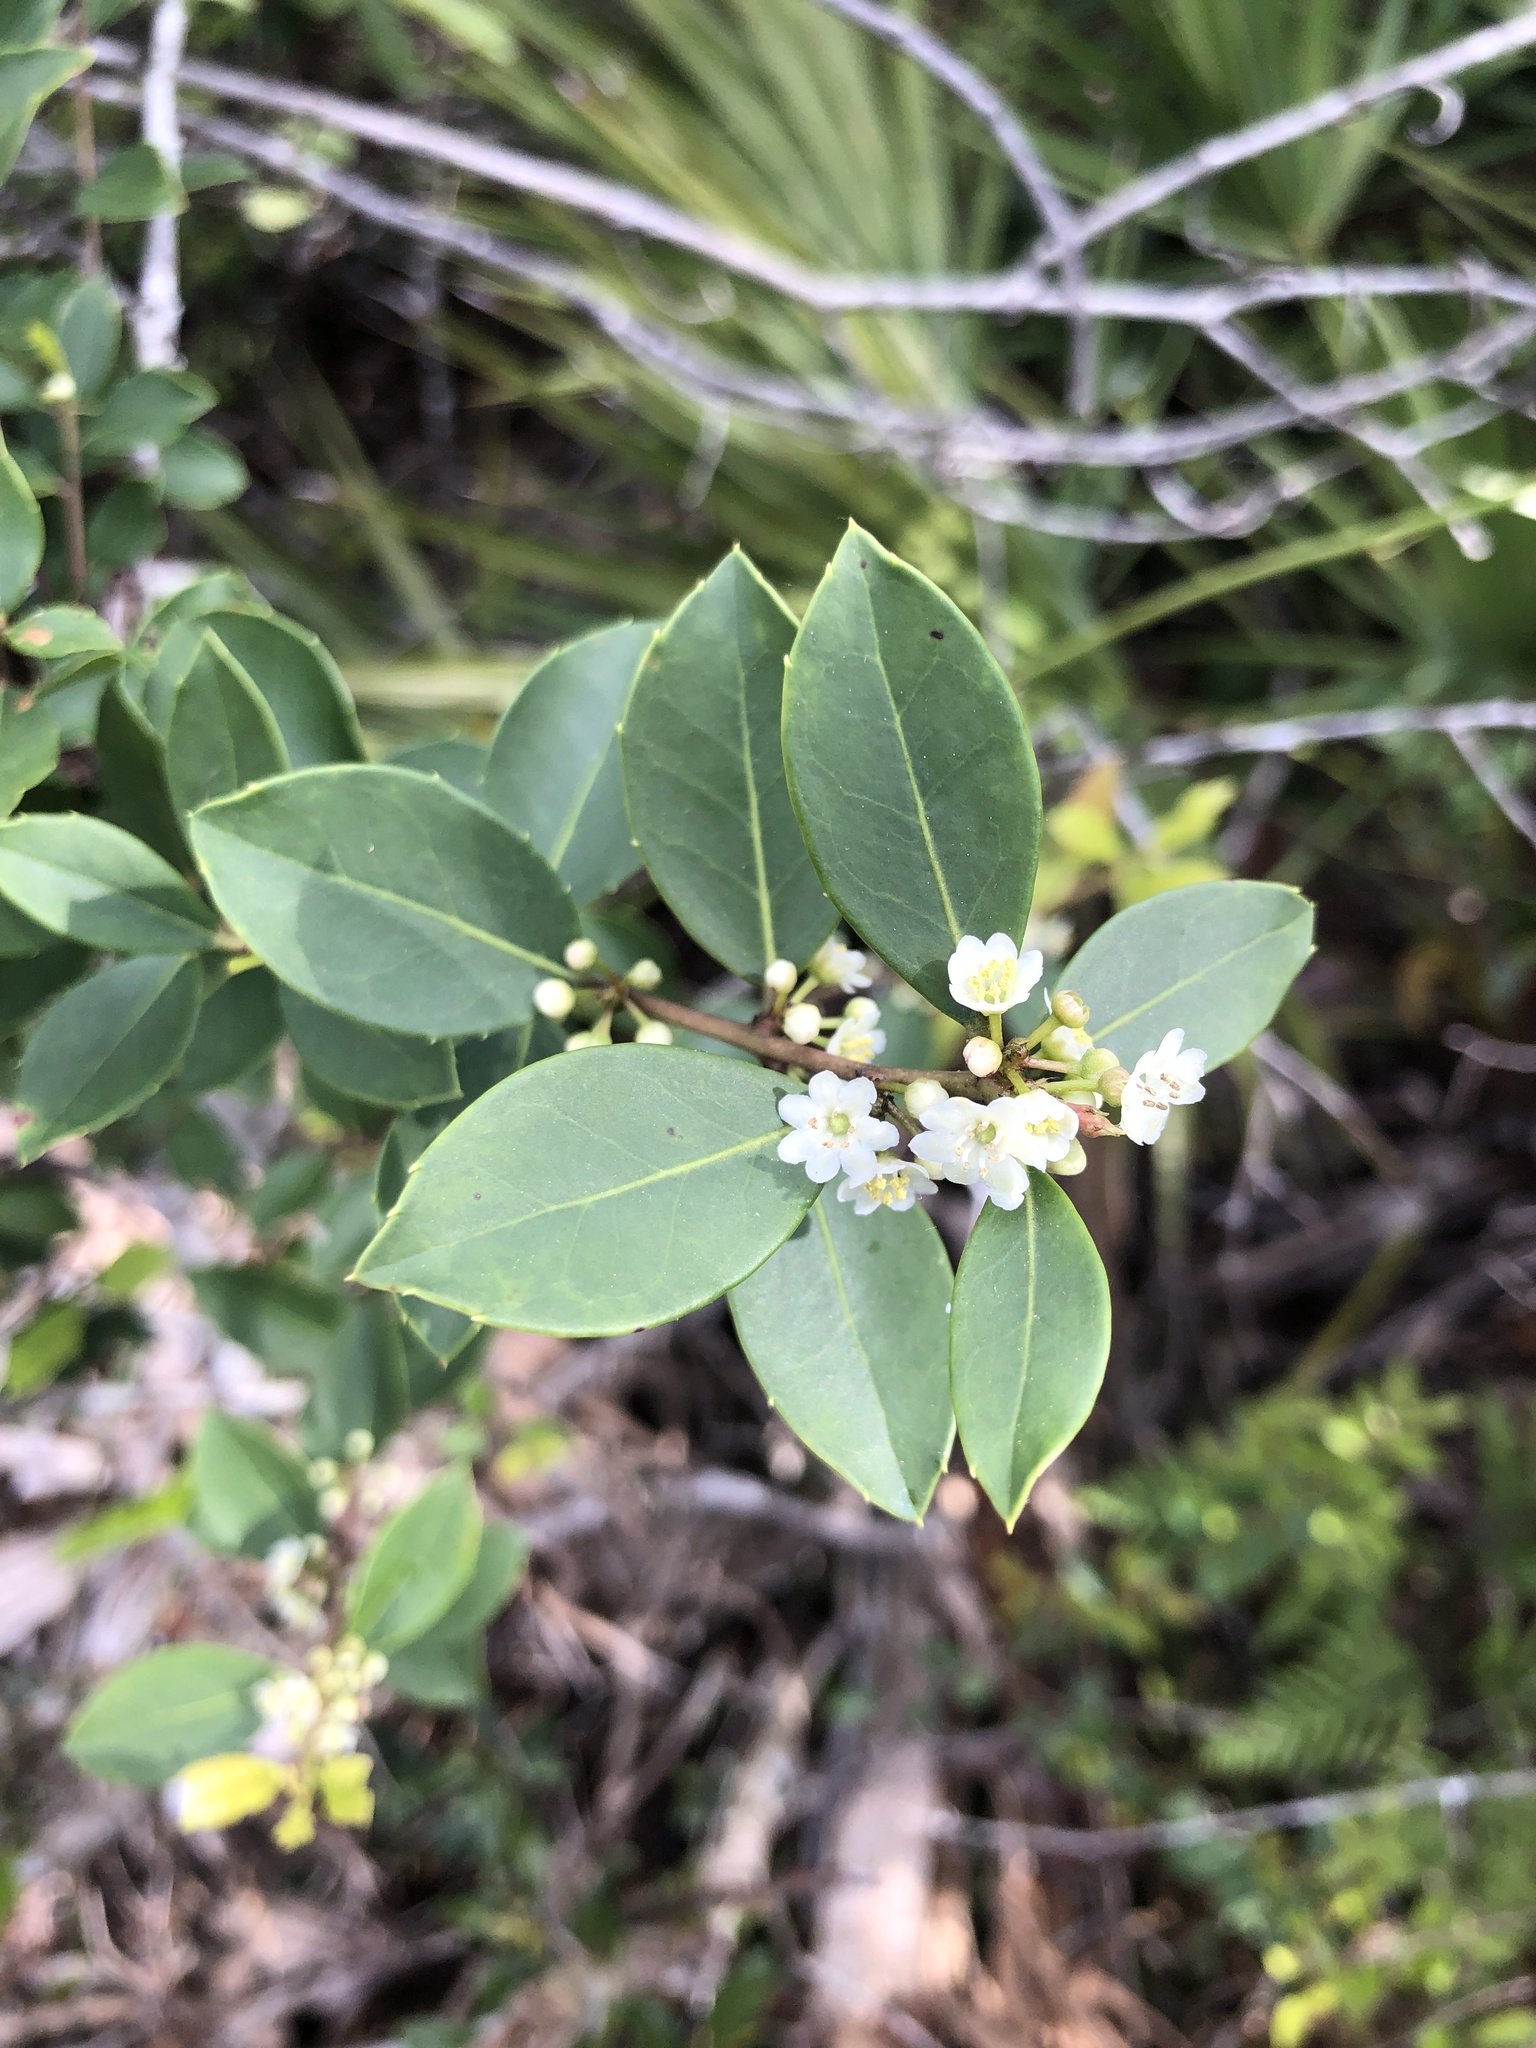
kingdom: Plantae
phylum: Tracheophyta
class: Magnoliopsida
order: Aquifoliales
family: Aquifoliaceae
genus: Ilex
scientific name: Ilex coriacea
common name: Sweet gallberry
